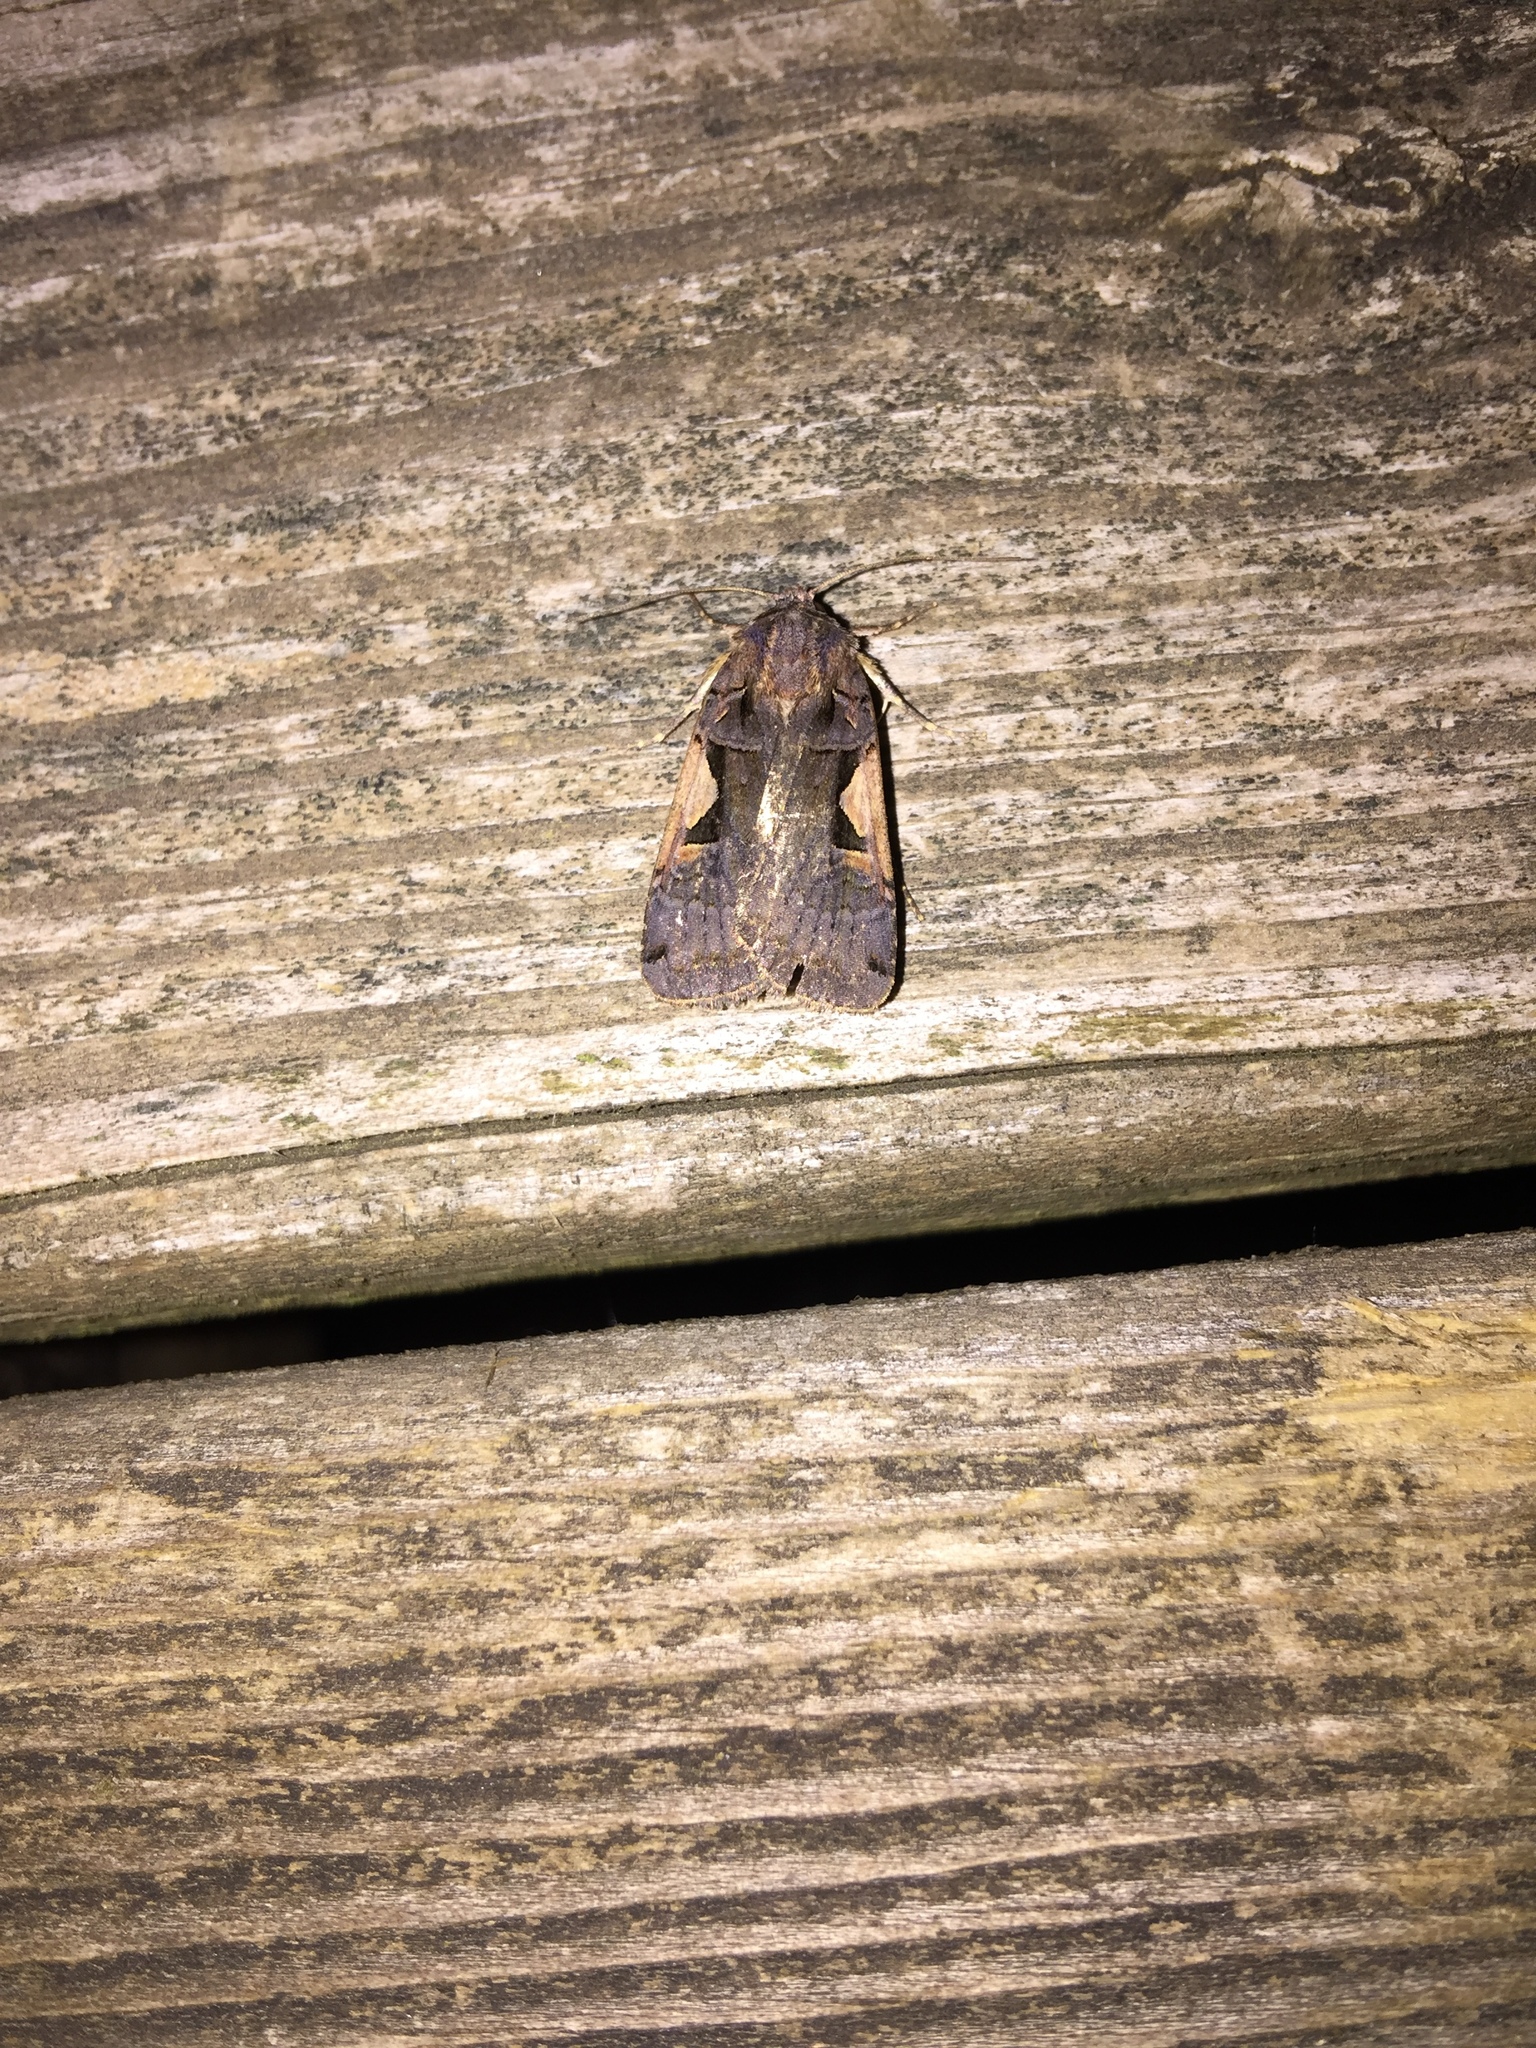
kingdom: Animalia
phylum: Arthropoda
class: Insecta
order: Lepidoptera
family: Noctuidae
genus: Xestia
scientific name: Xestia c-nigrum
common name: Setaceous hebrew character
